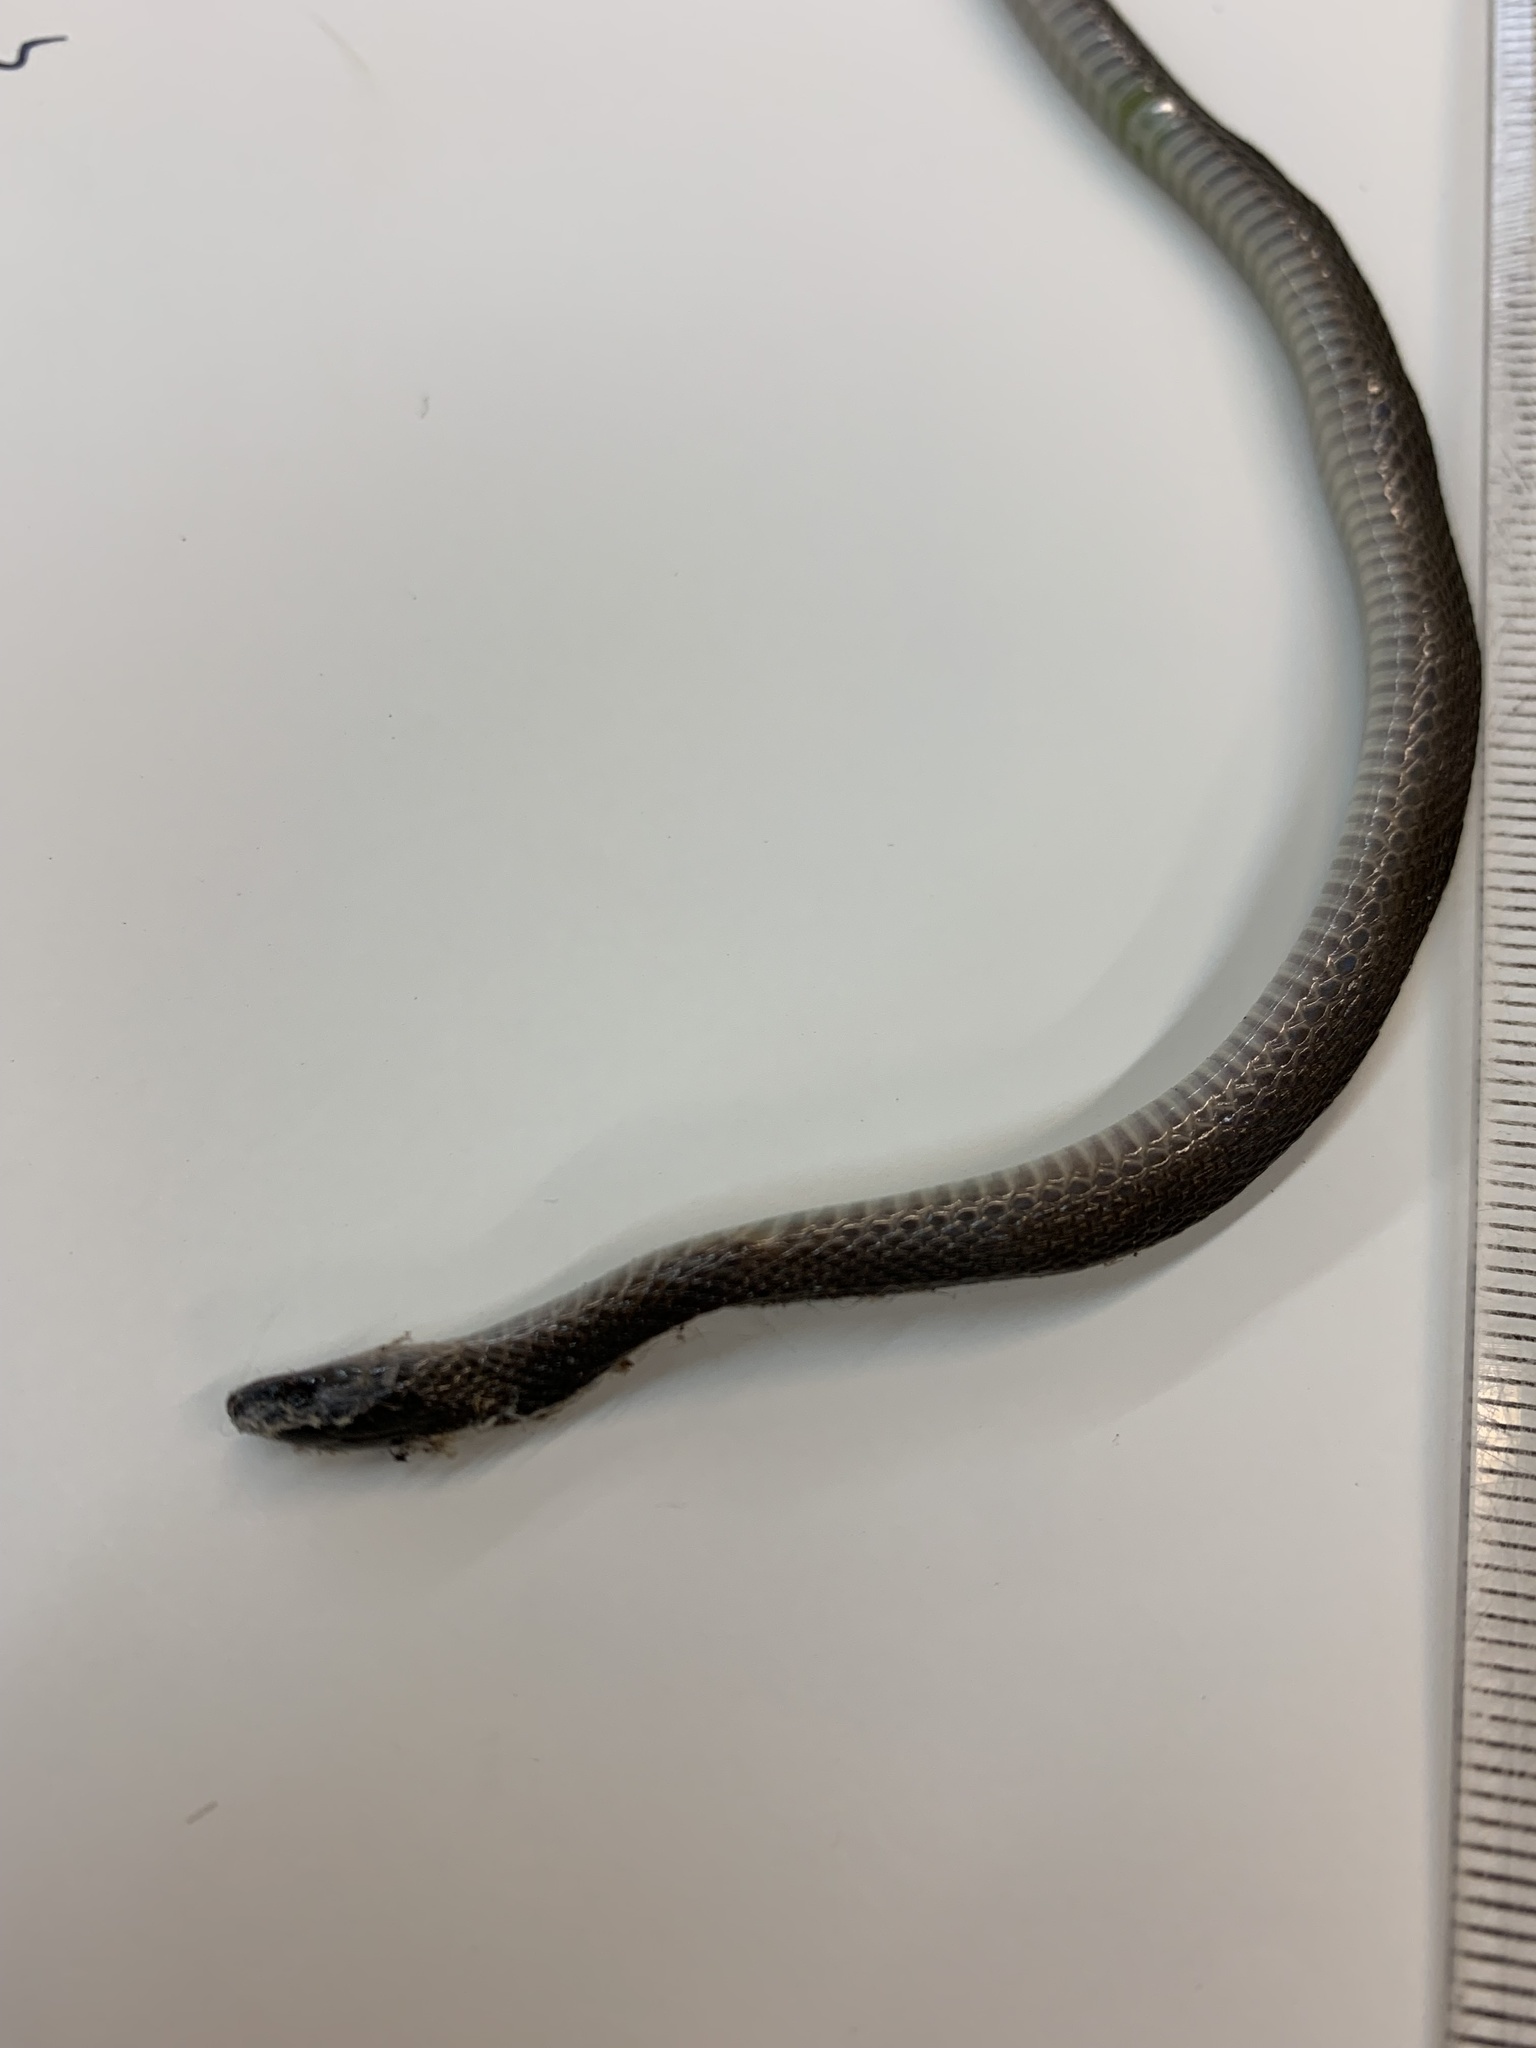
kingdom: Animalia
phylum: Chordata
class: Squamata
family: Colubridae
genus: Haldea
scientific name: Haldea striatula
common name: Rough earth snake
